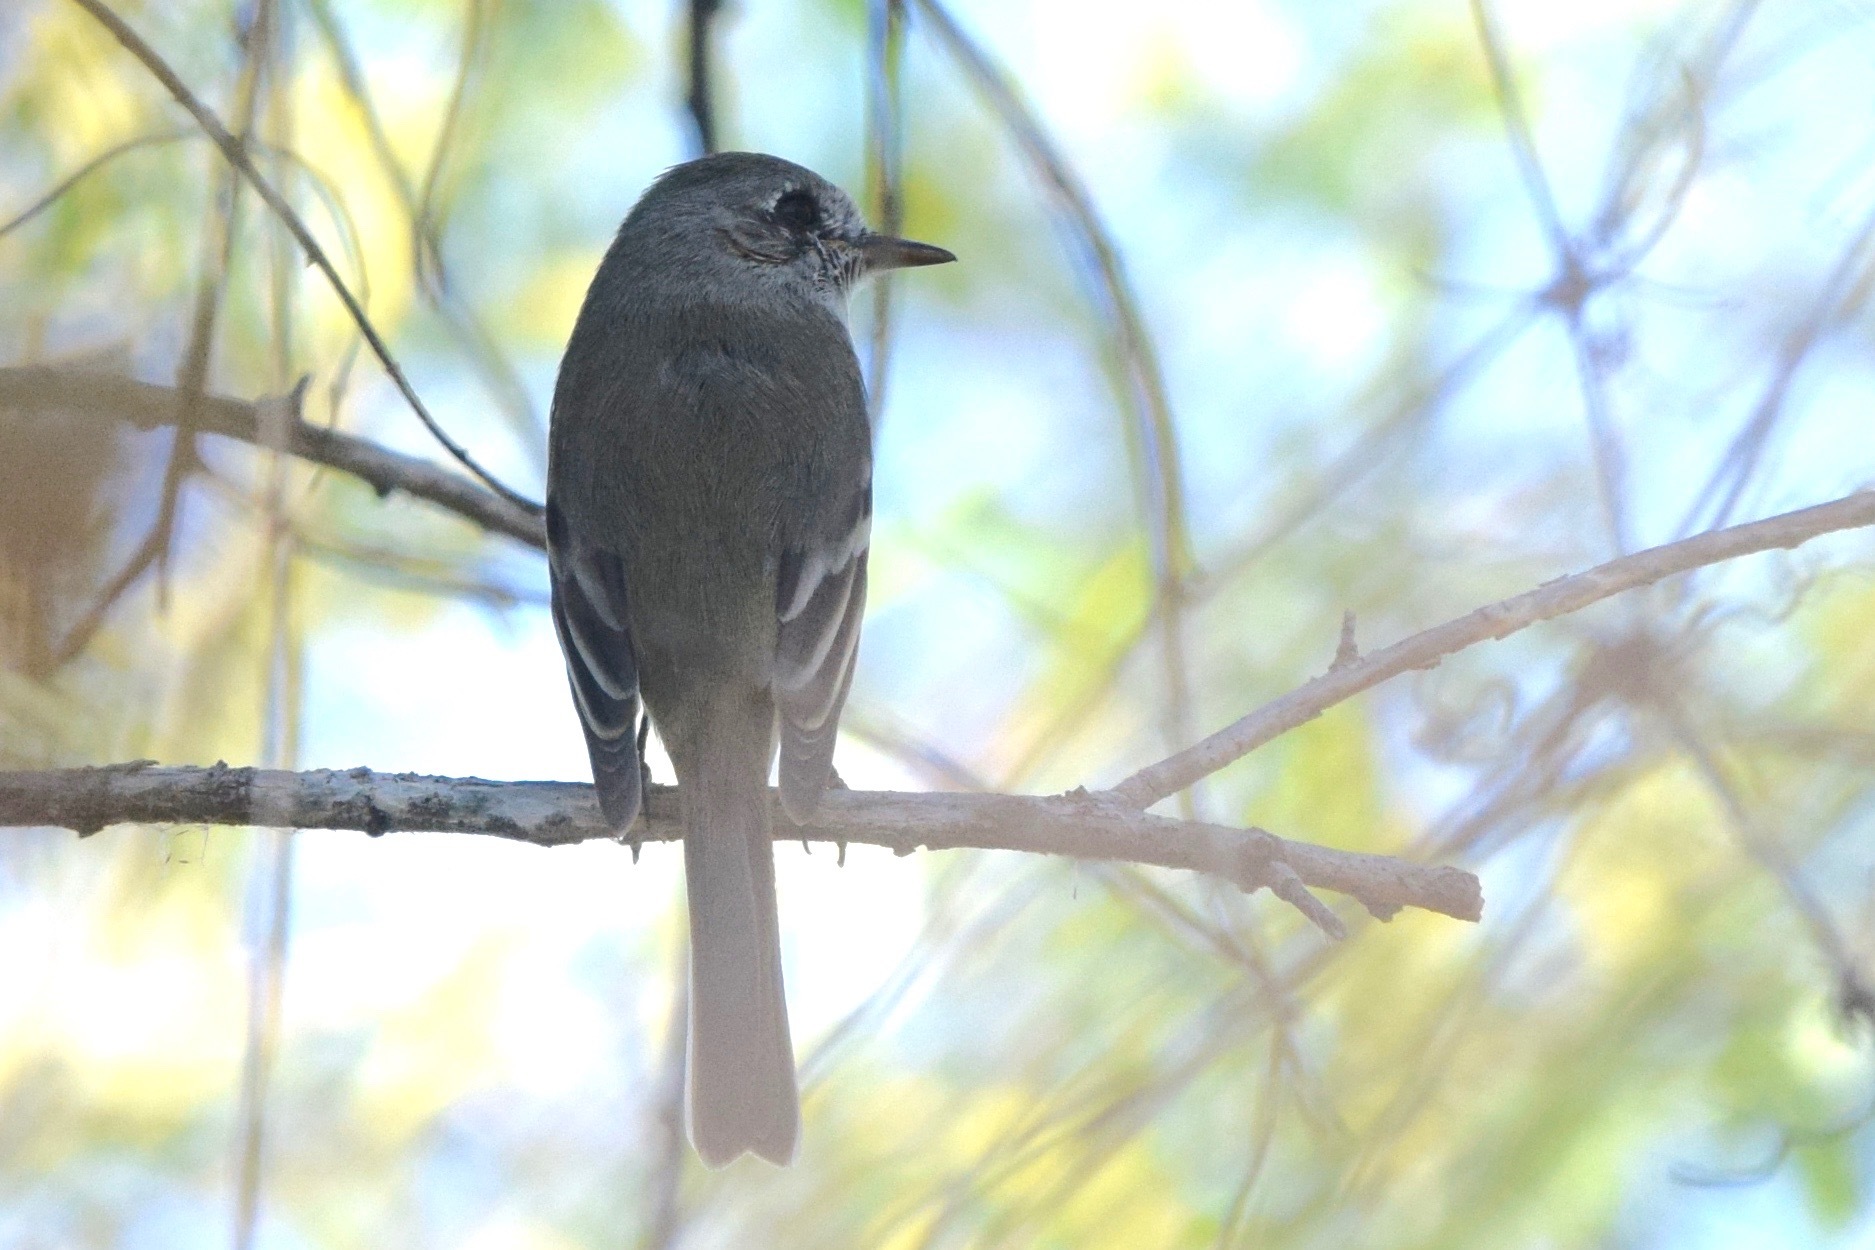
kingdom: Animalia
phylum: Chordata
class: Aves
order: Passeriformes
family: Tyrannidae
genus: Empidonax
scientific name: Empidonax wrightii
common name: Gray flycatcher
